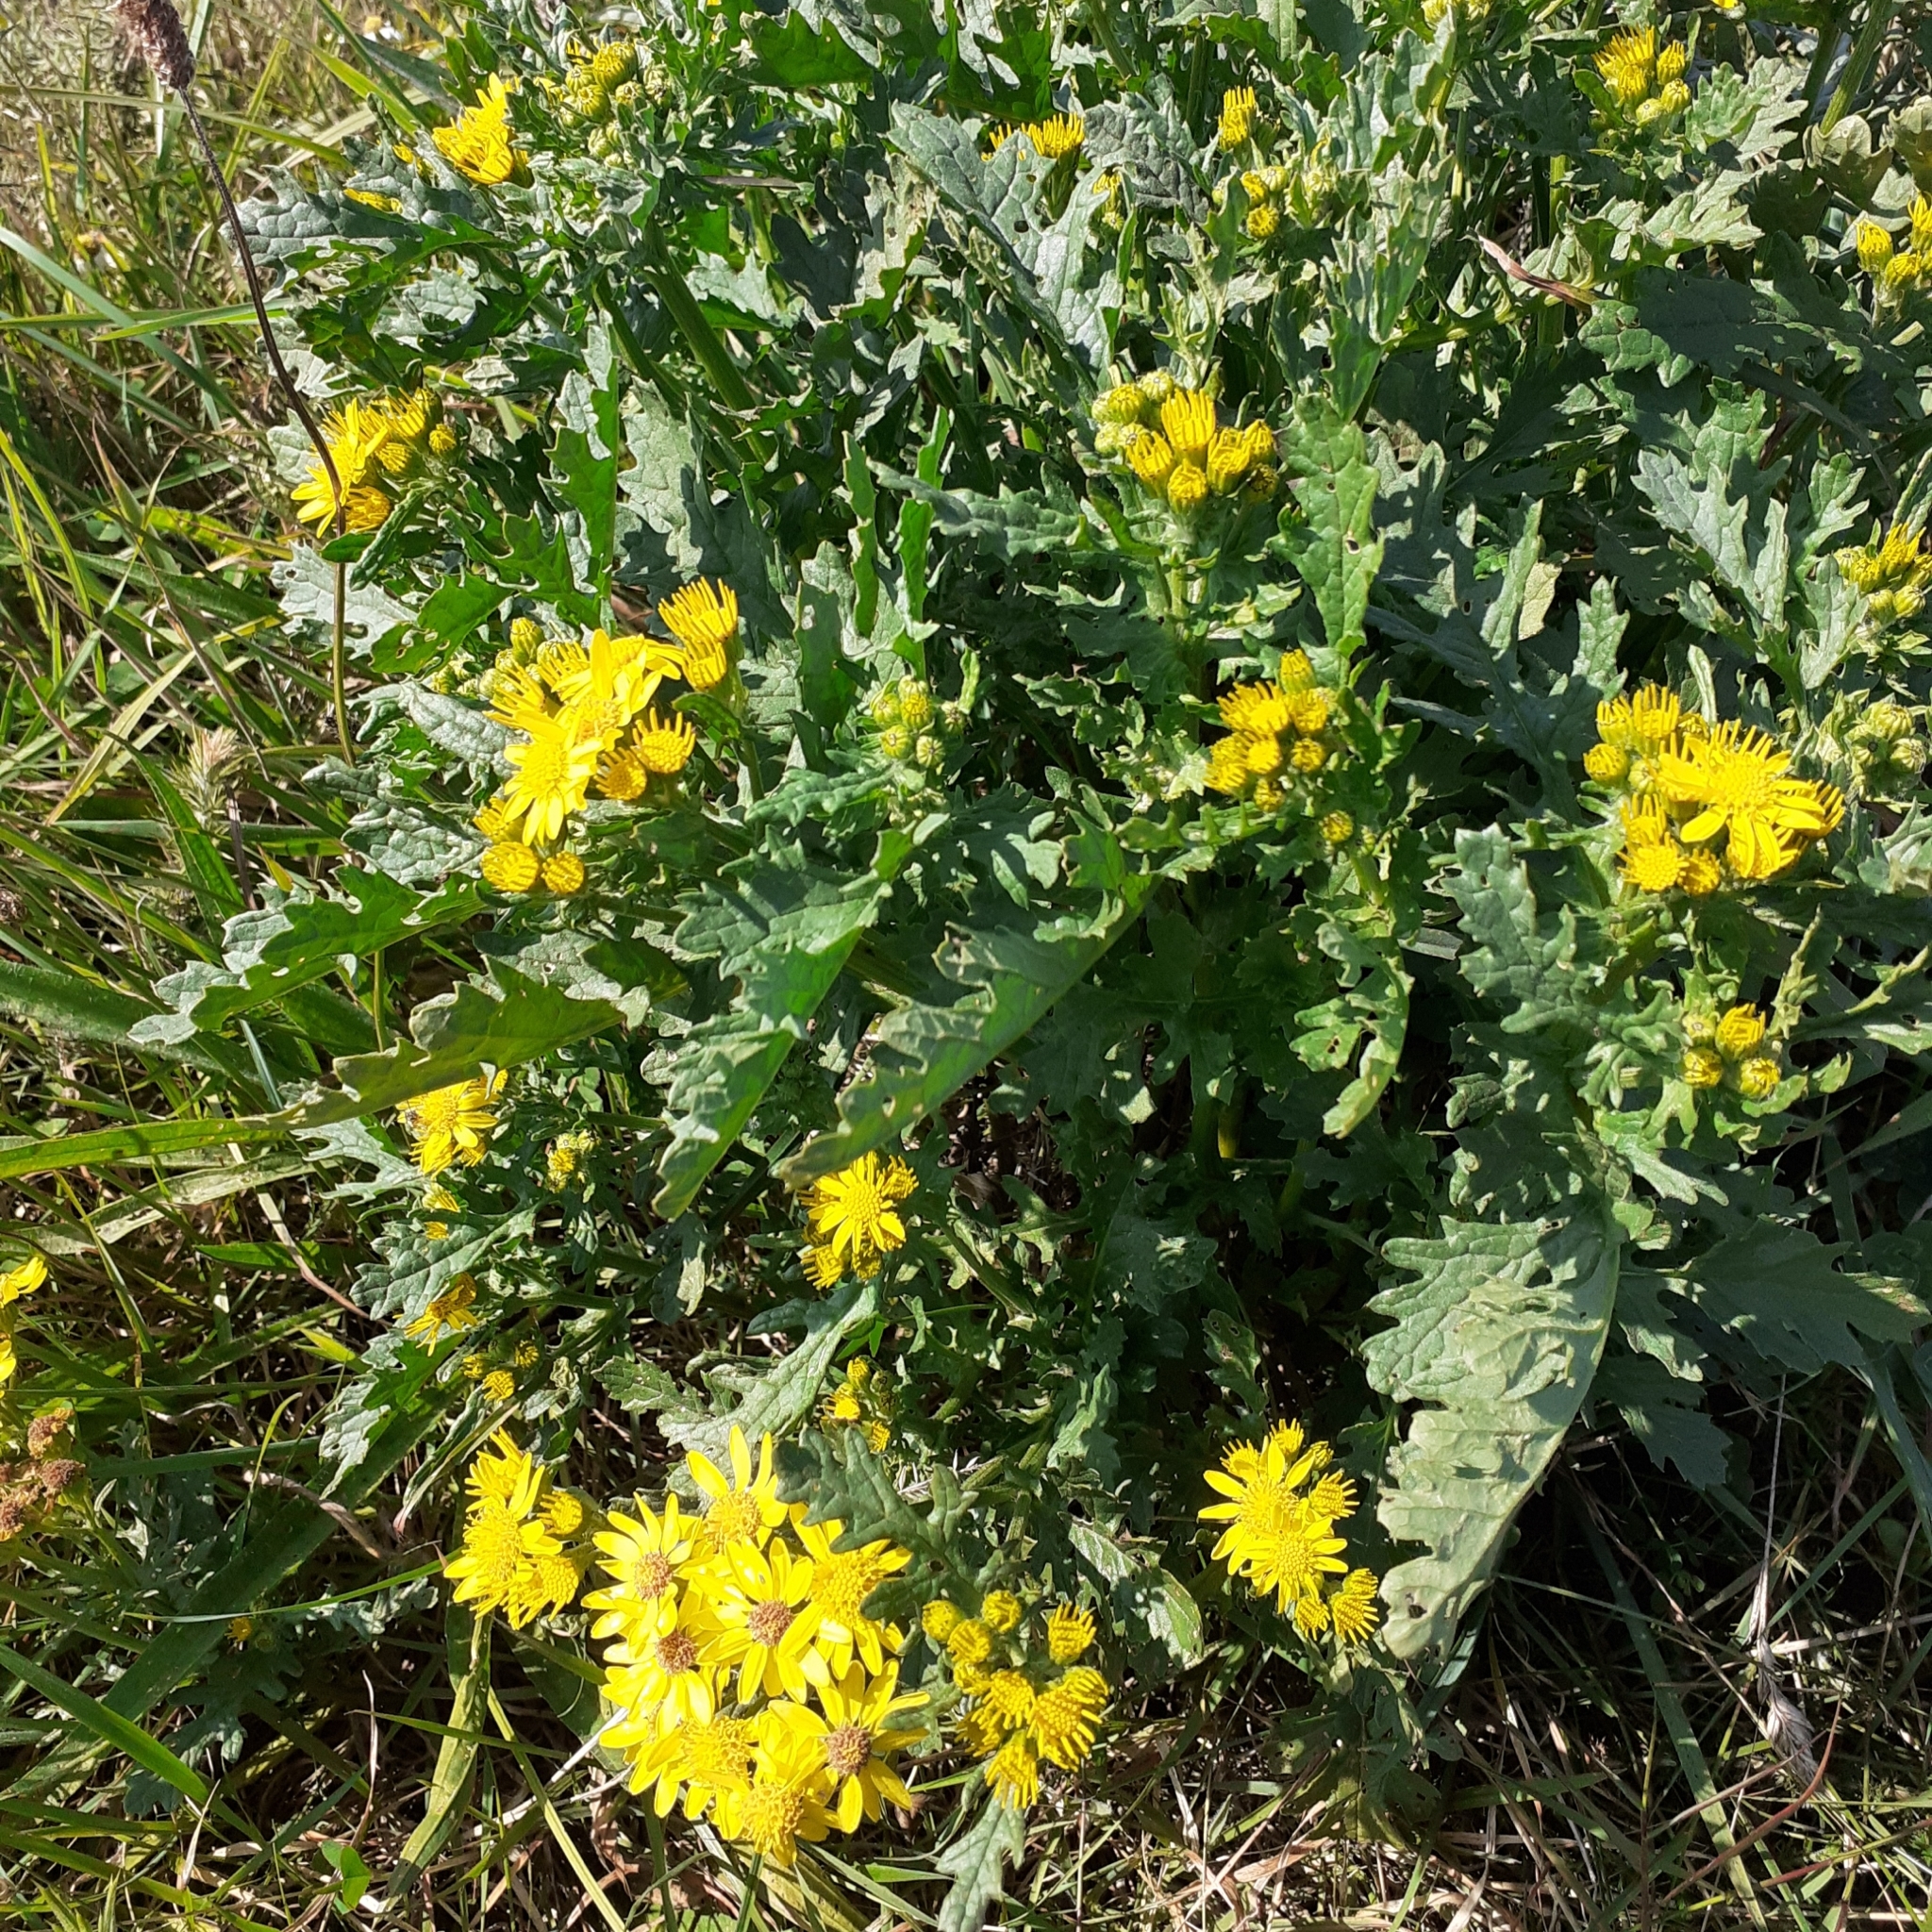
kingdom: Plantae
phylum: Tracheophyta
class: Magnoliopsida
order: Asterales
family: Asteraceae
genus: Jacobaea
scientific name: Jacobaea vulgaris
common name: Stinking willie
